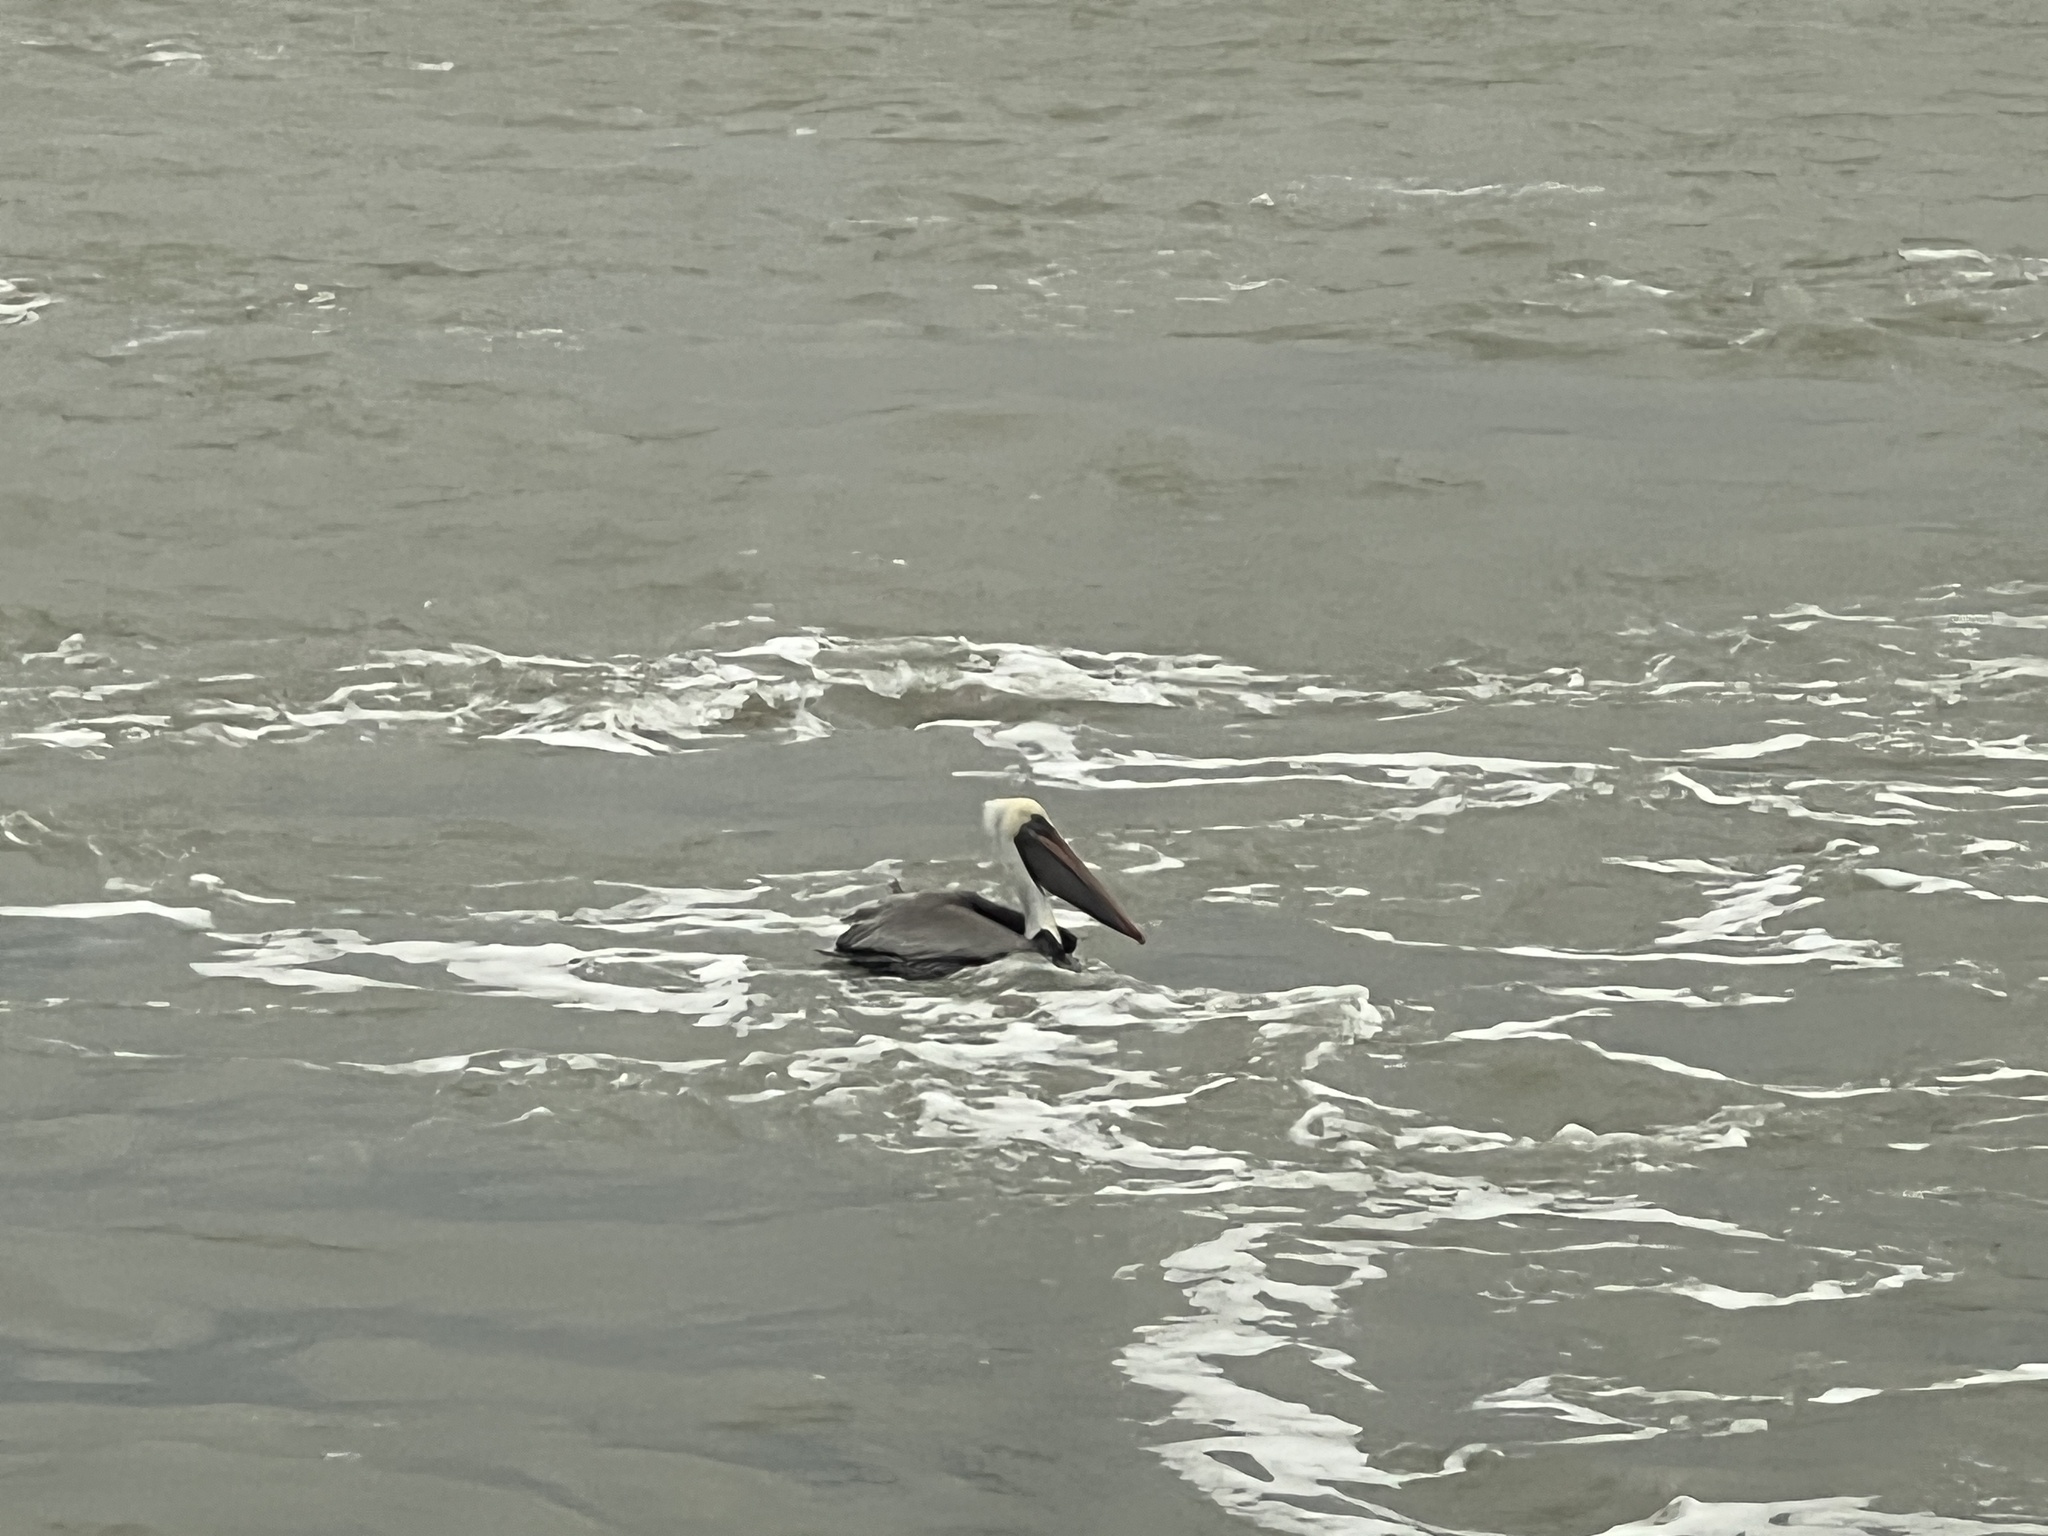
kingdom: Animalia
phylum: Chordata
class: Aves
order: Pelecaniformes
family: Pelecanidae
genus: Pelecanus
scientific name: Pelecanus occidentalis
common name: Brown pelican
